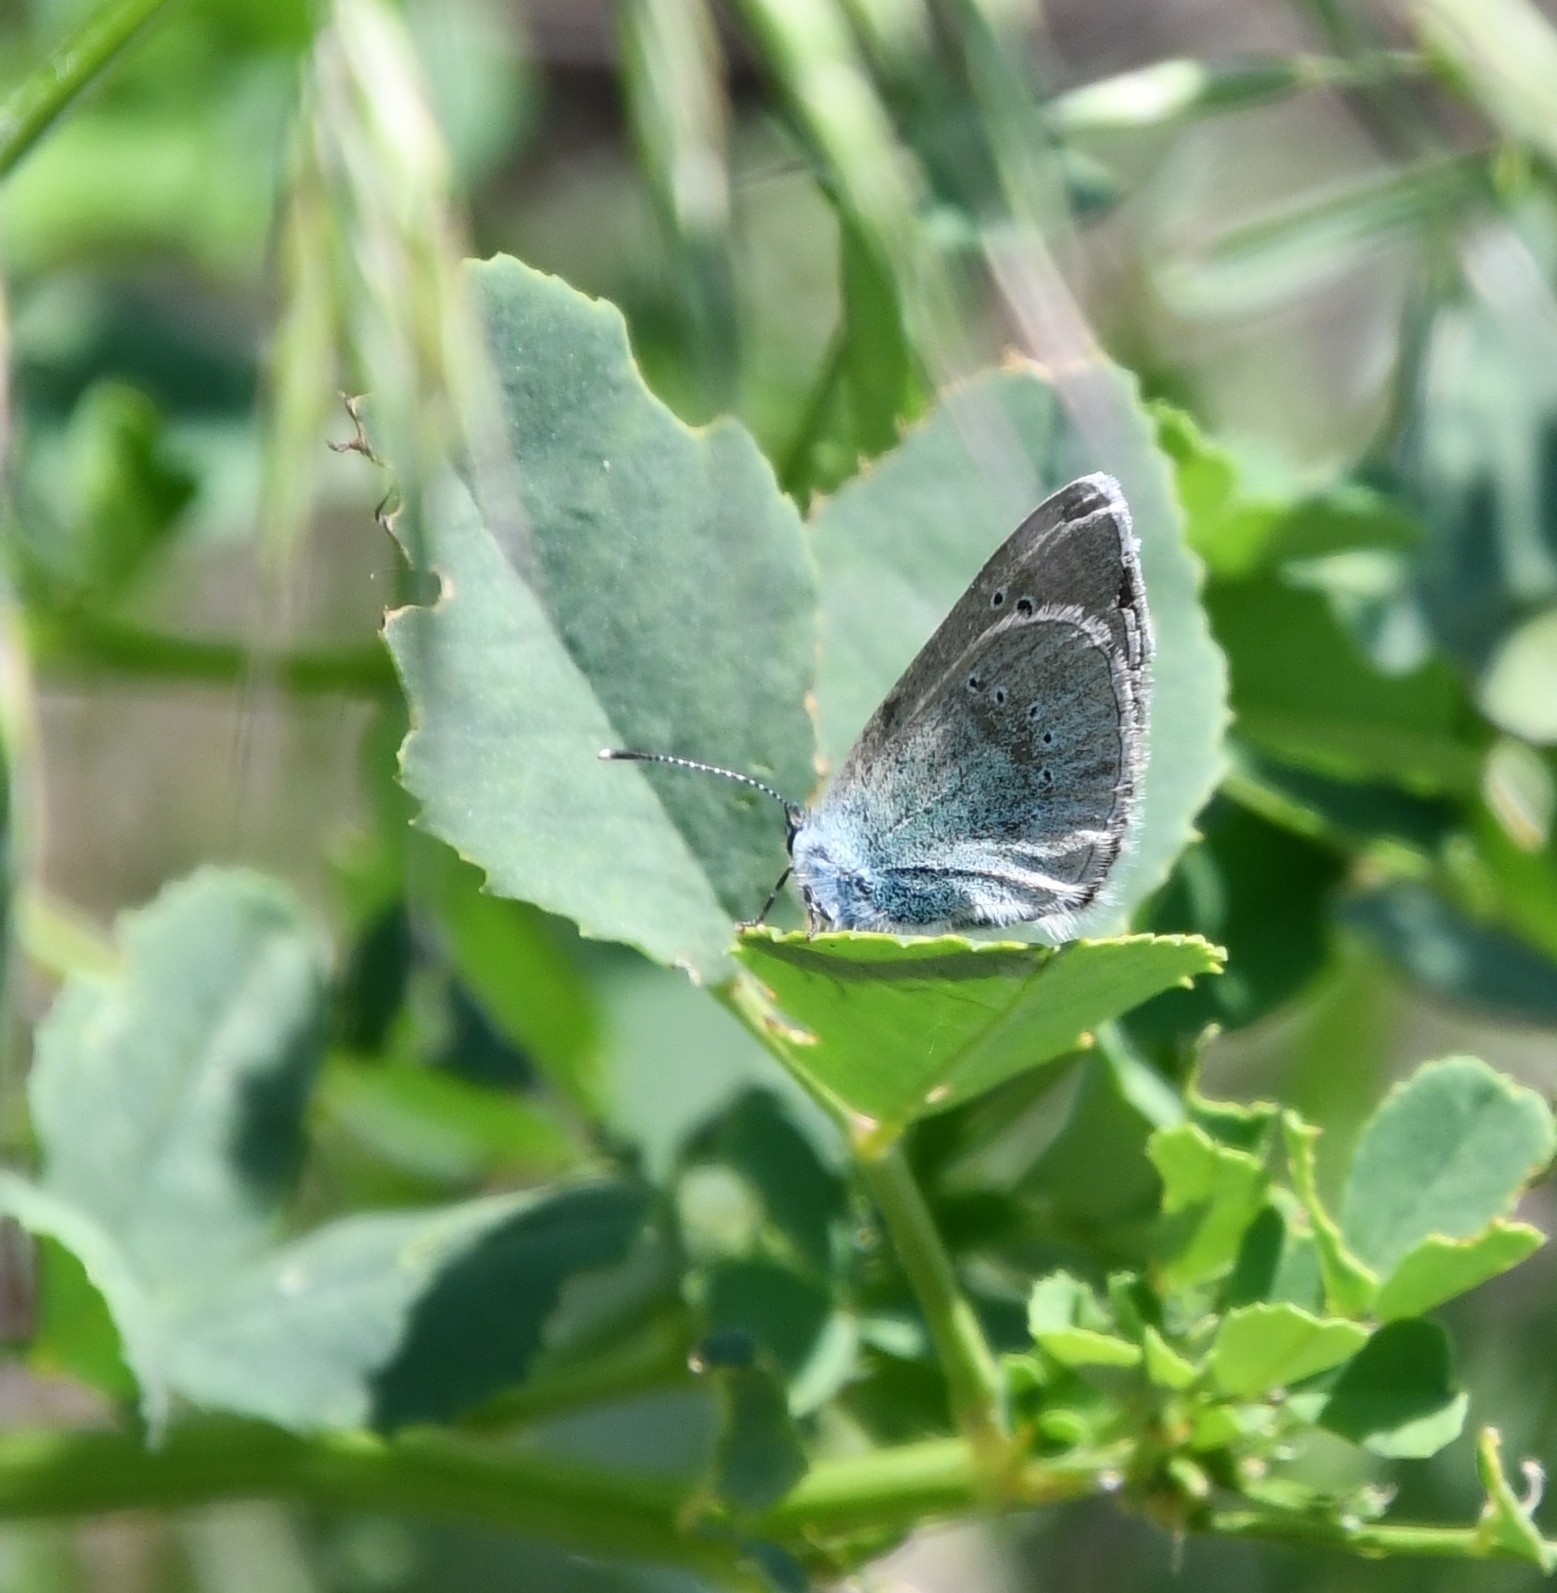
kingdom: Animalia
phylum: Arthropoda
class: Insecta
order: Lepidoptera
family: Lycaenidae
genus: Glaucopsyche
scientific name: Glaucopsyche alexis
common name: Green-underside blue
